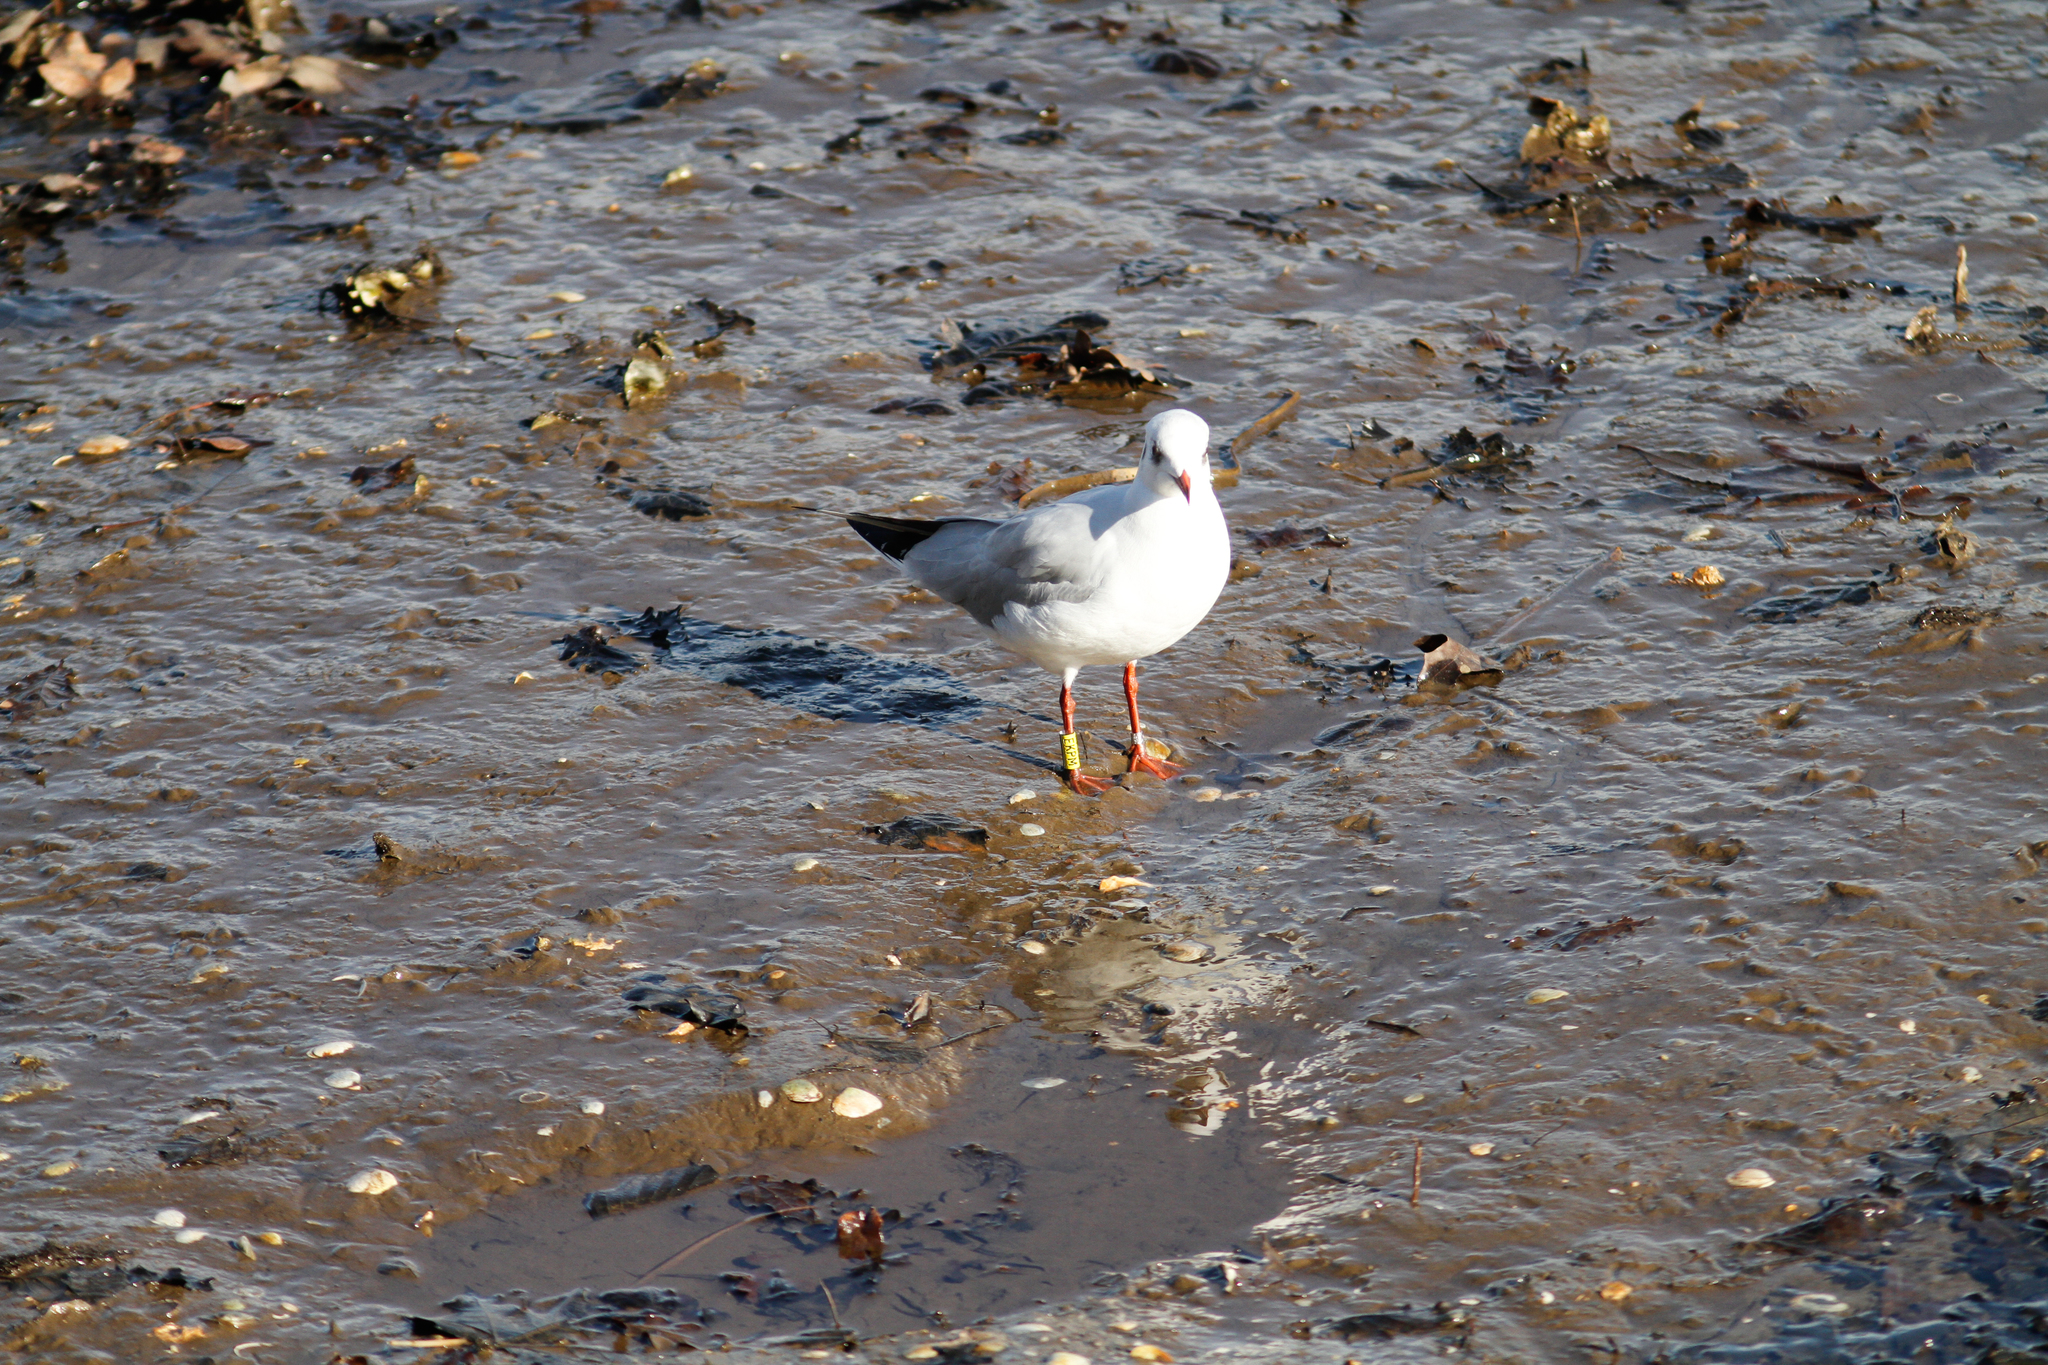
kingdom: Animalia
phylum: Chordata
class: Aves
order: Charadriiformes
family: Laridae
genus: Chroicocephalus
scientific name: Chroicocephalus ridibundus
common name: Black-headed gull
